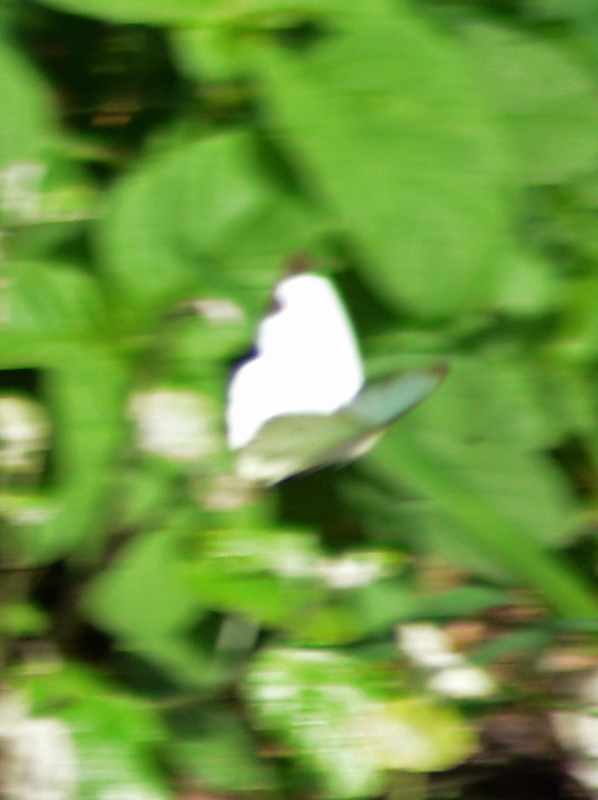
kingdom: Animalia
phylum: Arthropoda
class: Insecta
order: Lepidoptera
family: Pieridae
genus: Leptophobia
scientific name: Leptophobia aripa
